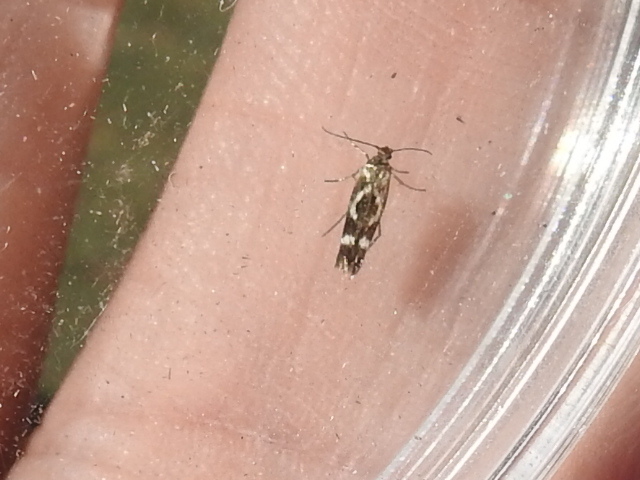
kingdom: Animalia
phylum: Arthropoda
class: Insecta
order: Lepidoptera
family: Scythrididae
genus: Scythris
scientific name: Scythris trivinctella
